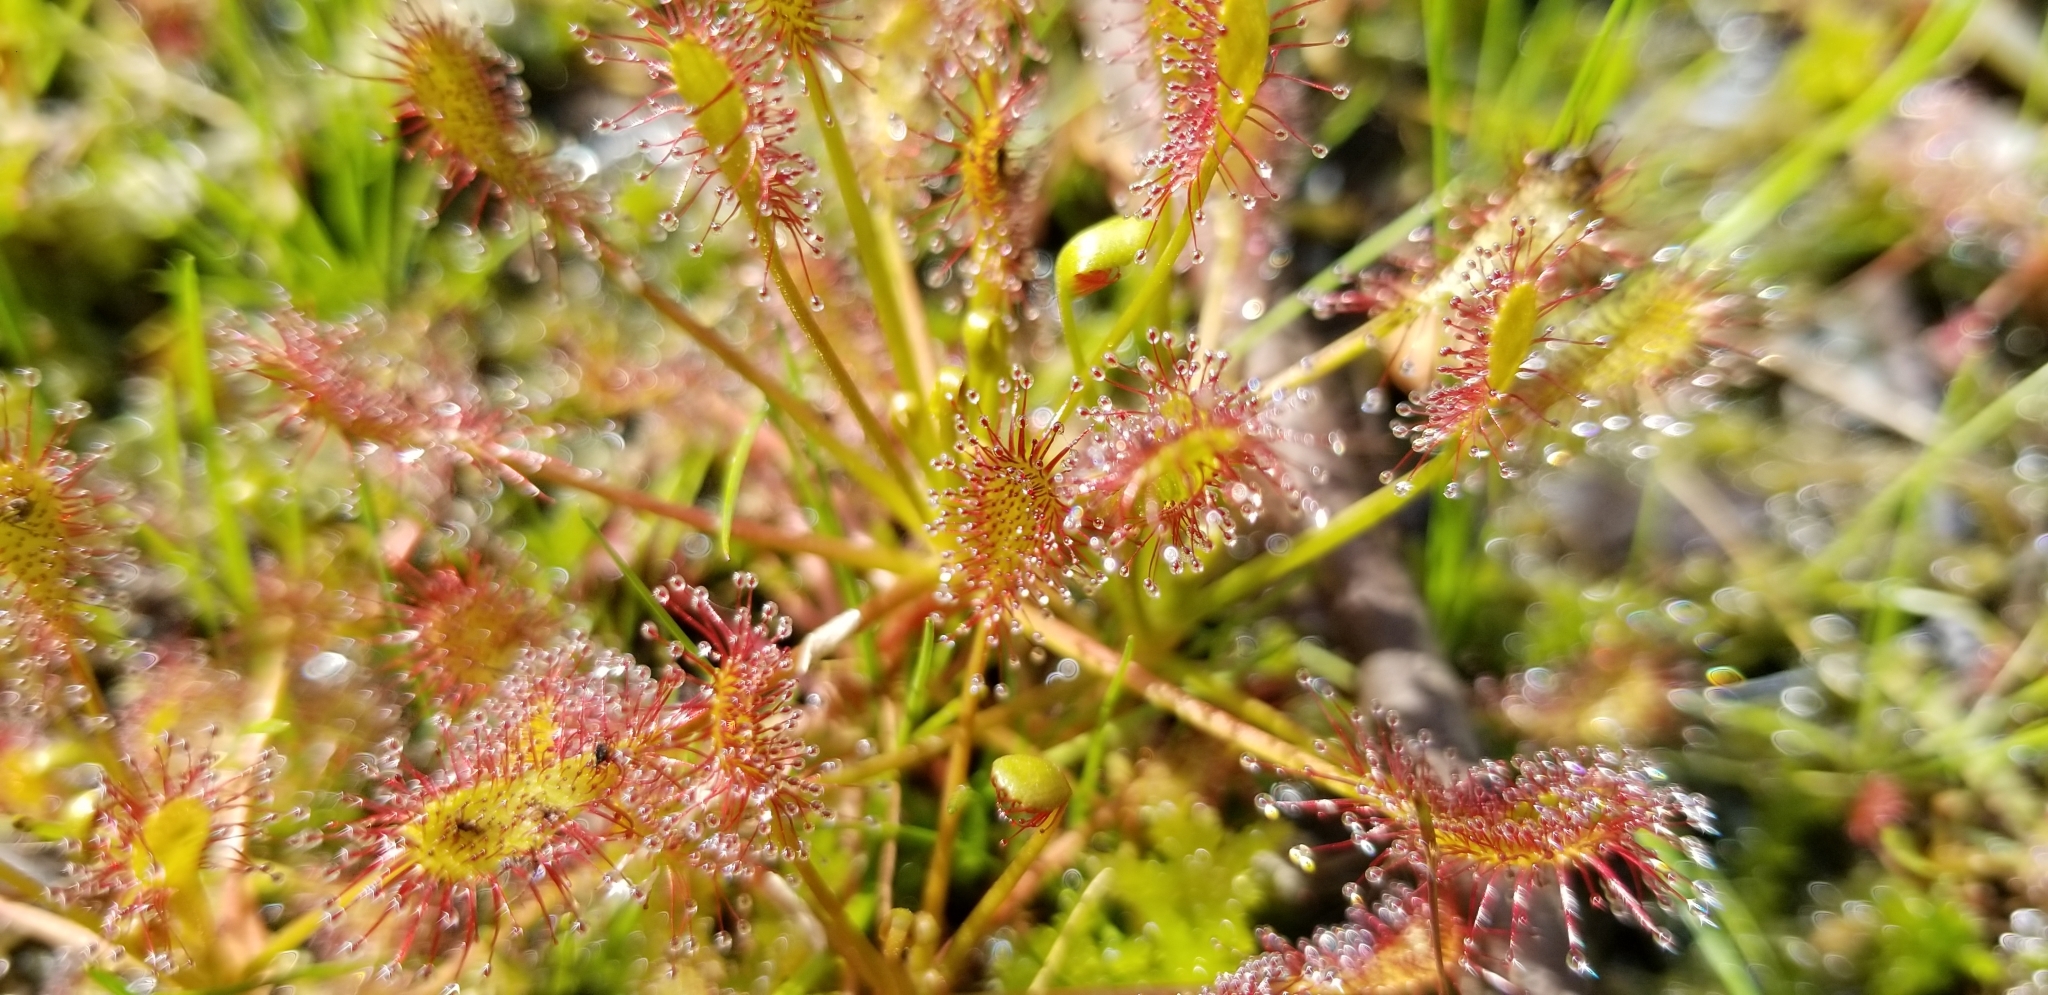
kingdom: Plantae
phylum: Tracheophyta
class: Magnoliopsida
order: Caryophyllales
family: Droseraceae
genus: Drosera
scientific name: Drosera intermedia
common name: Oblong-leaved sundew
